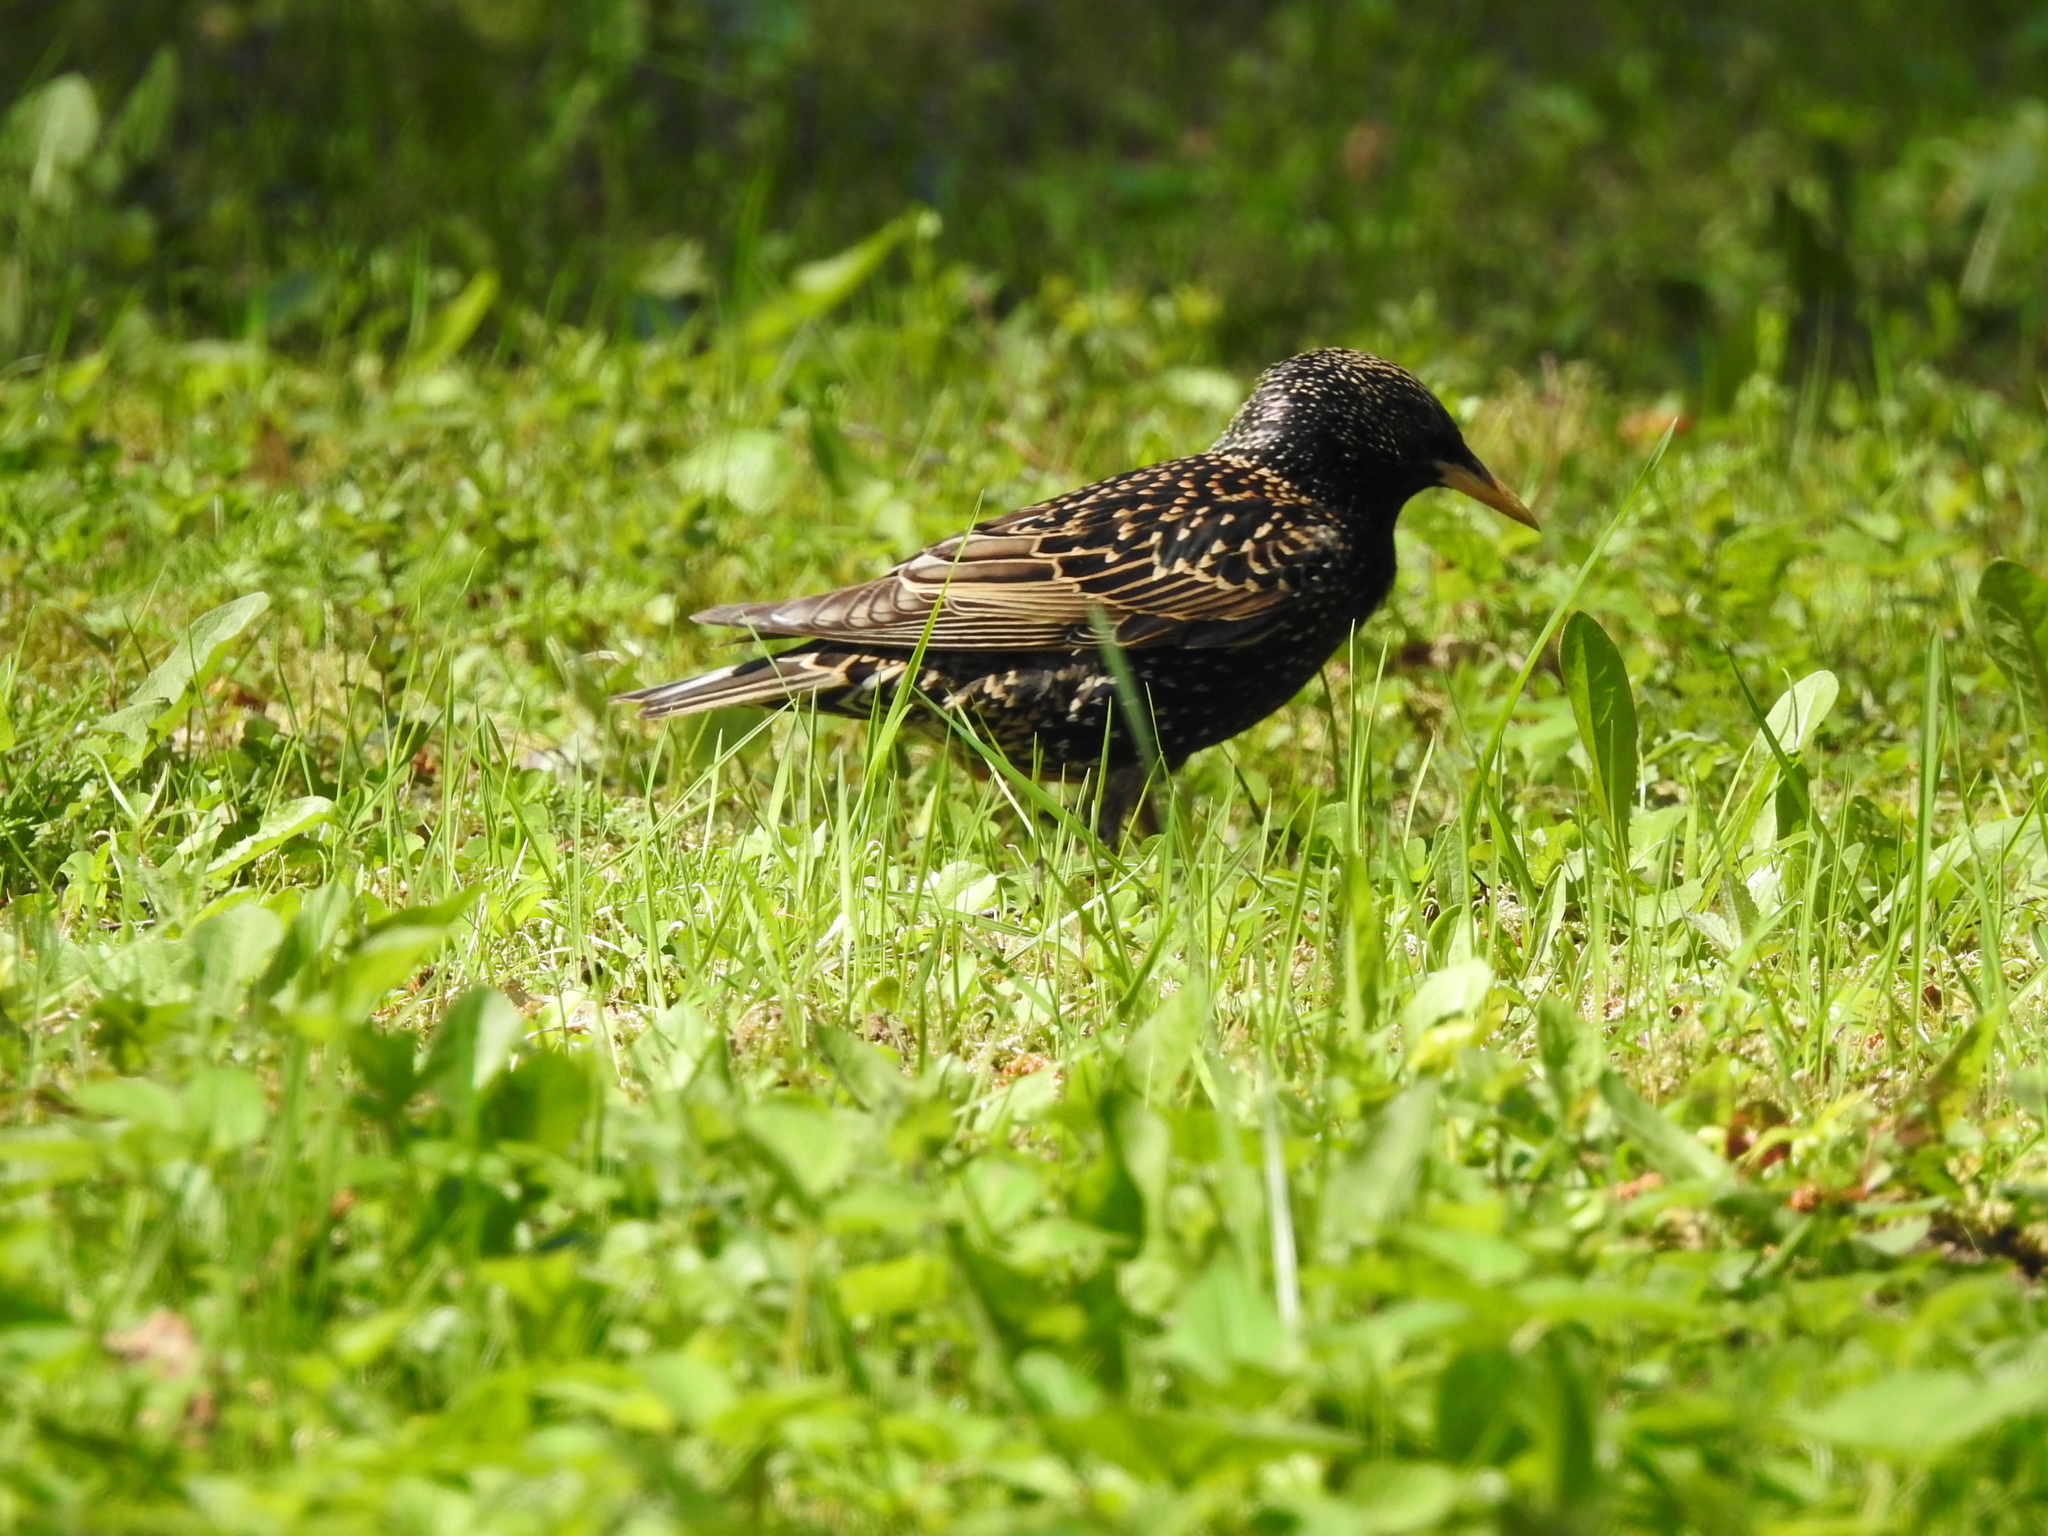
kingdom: Animalia
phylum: Chordata
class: Aves
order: Passeriformes
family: Sturnidae
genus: Sturnus
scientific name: Sturnus vulgaris
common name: Common starling
